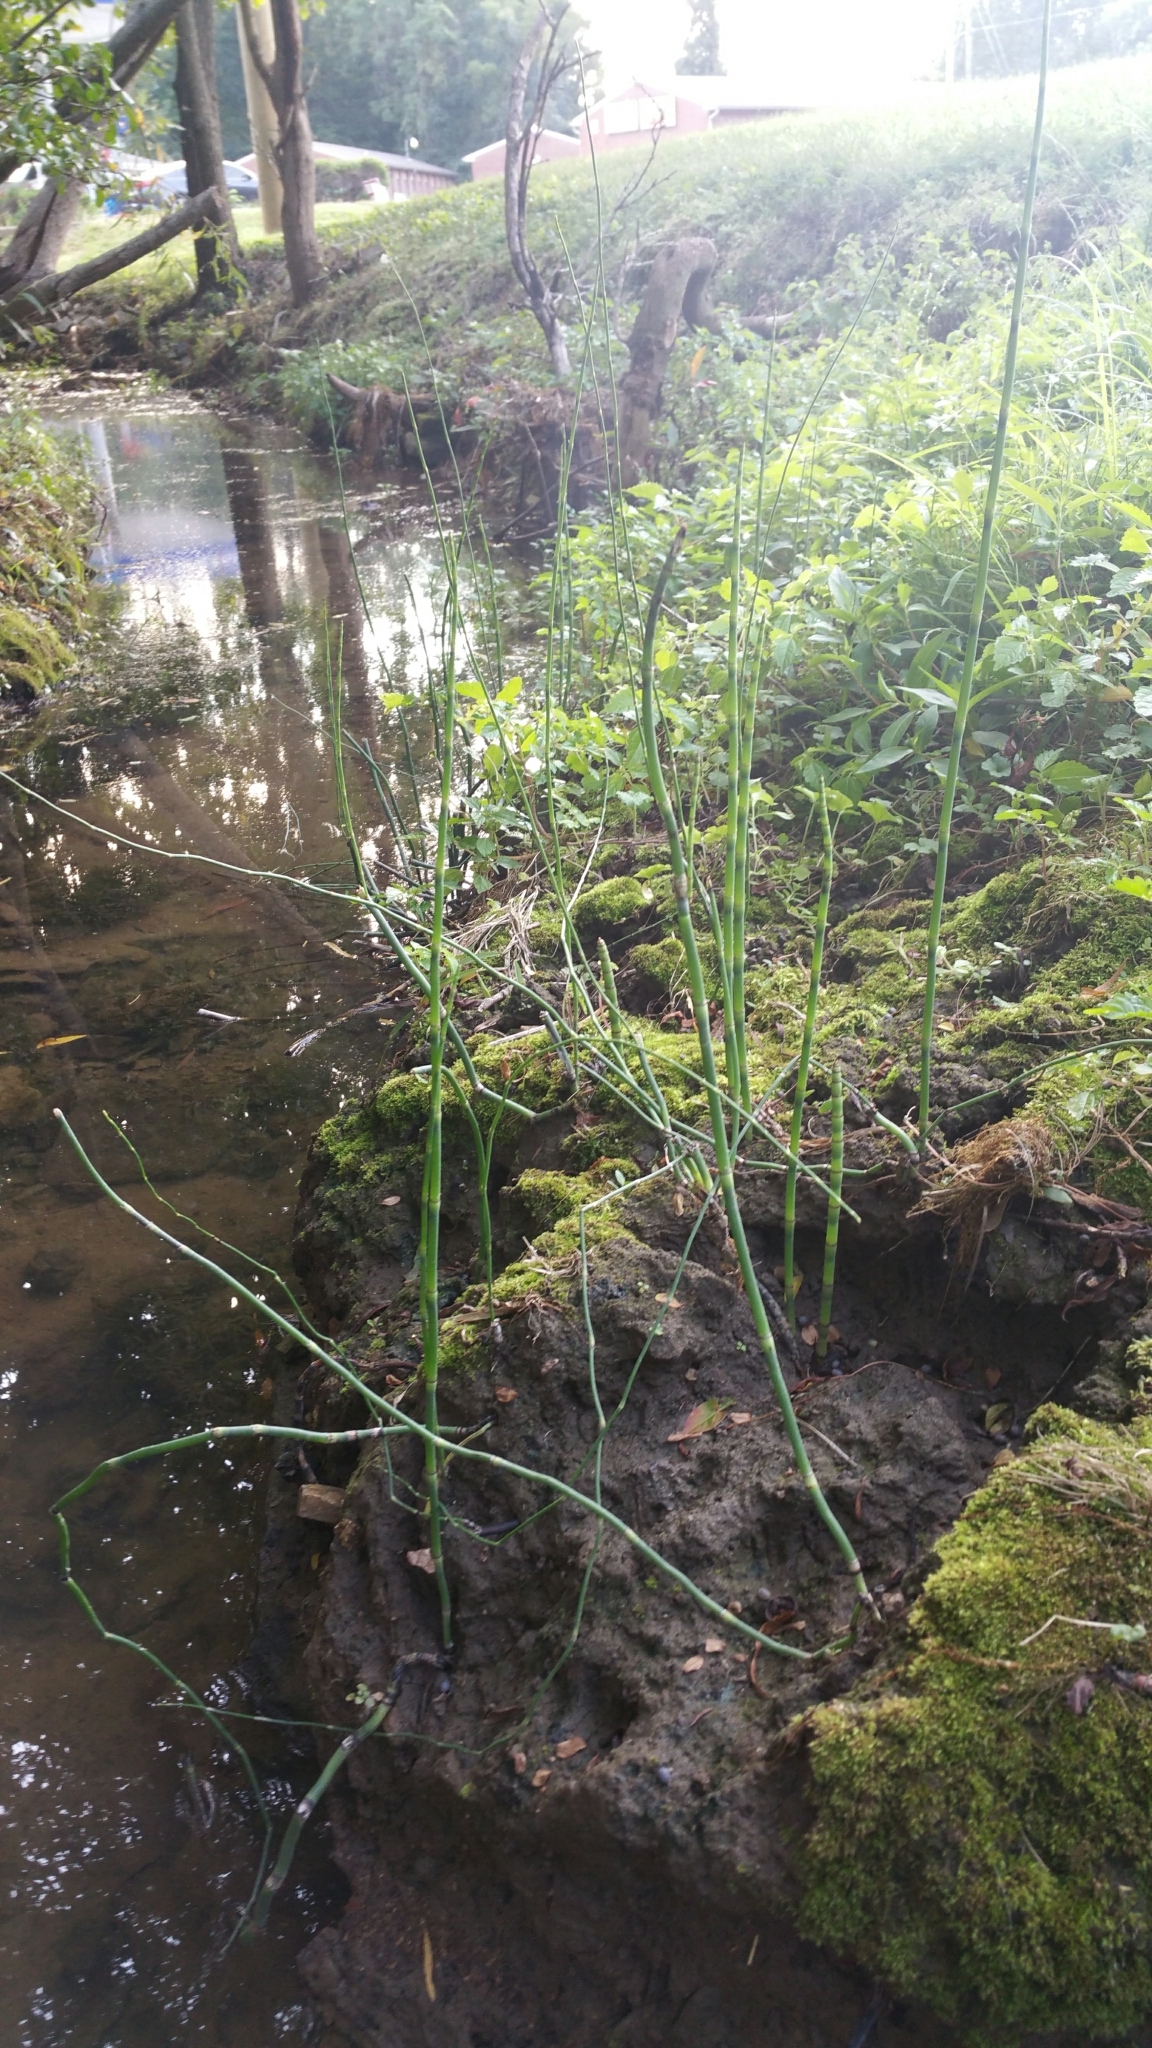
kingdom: Plantae
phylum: Tracheophyta
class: Polypodiopsida
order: Equisetales
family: Equisetaceae
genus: Equisetum
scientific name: Equisetum praealtum
